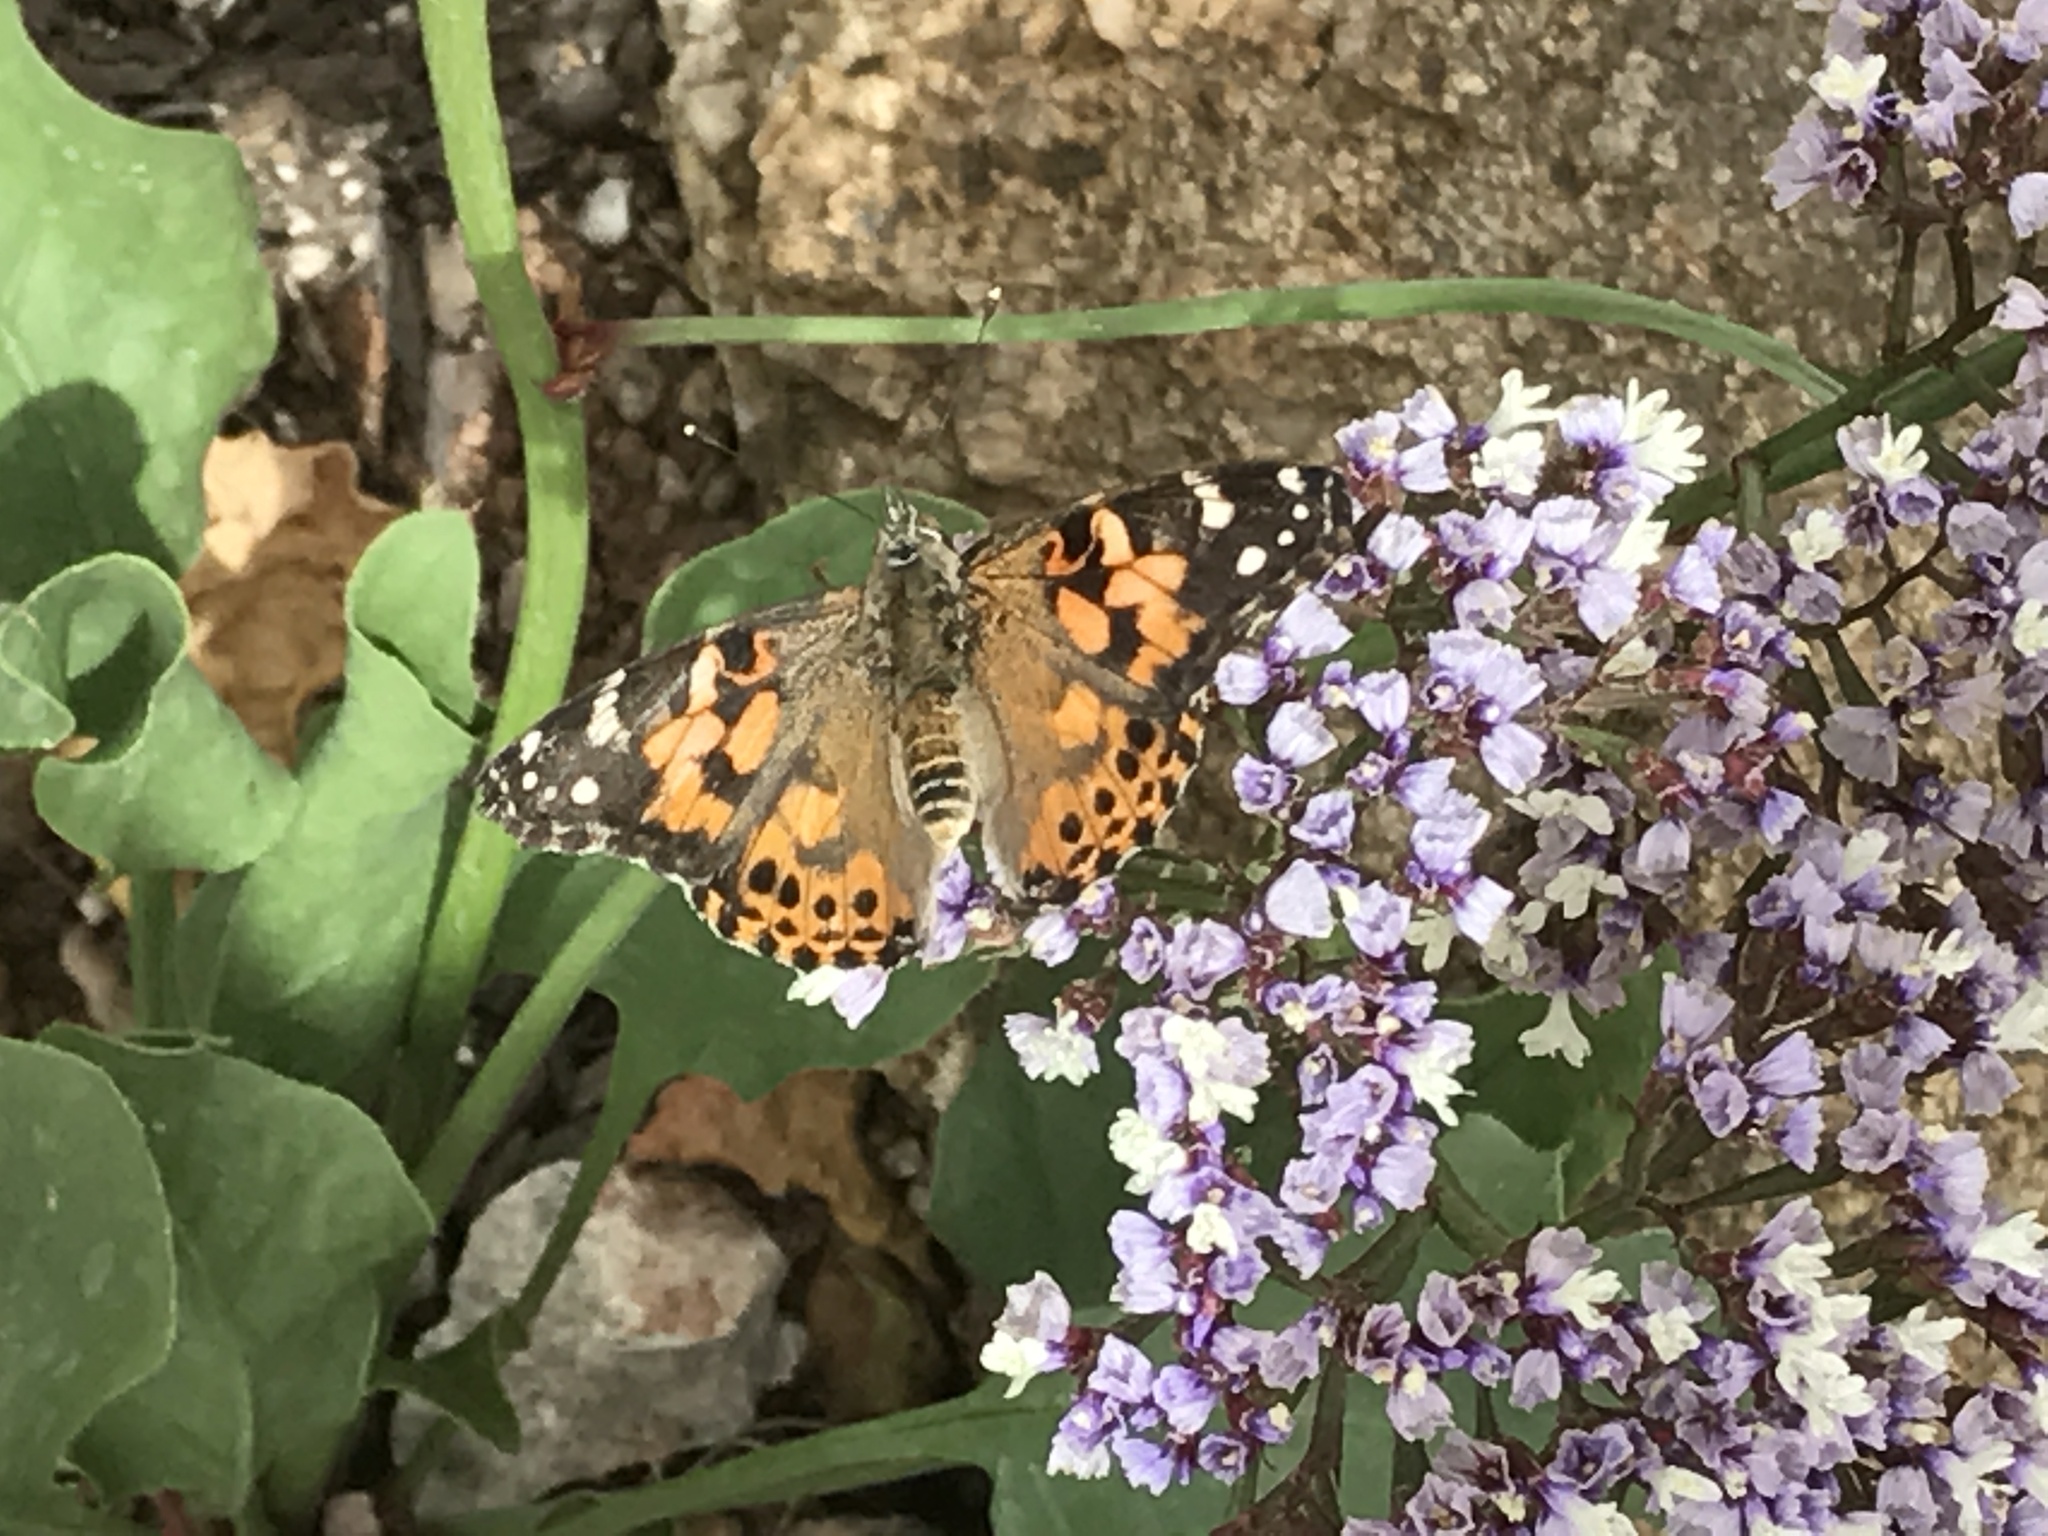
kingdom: Animalia
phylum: Arthropoda
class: Insecta
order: Lepidoptera
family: Nymphalidae
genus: Vanessa
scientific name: Vanessa cardui
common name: Painted lady
